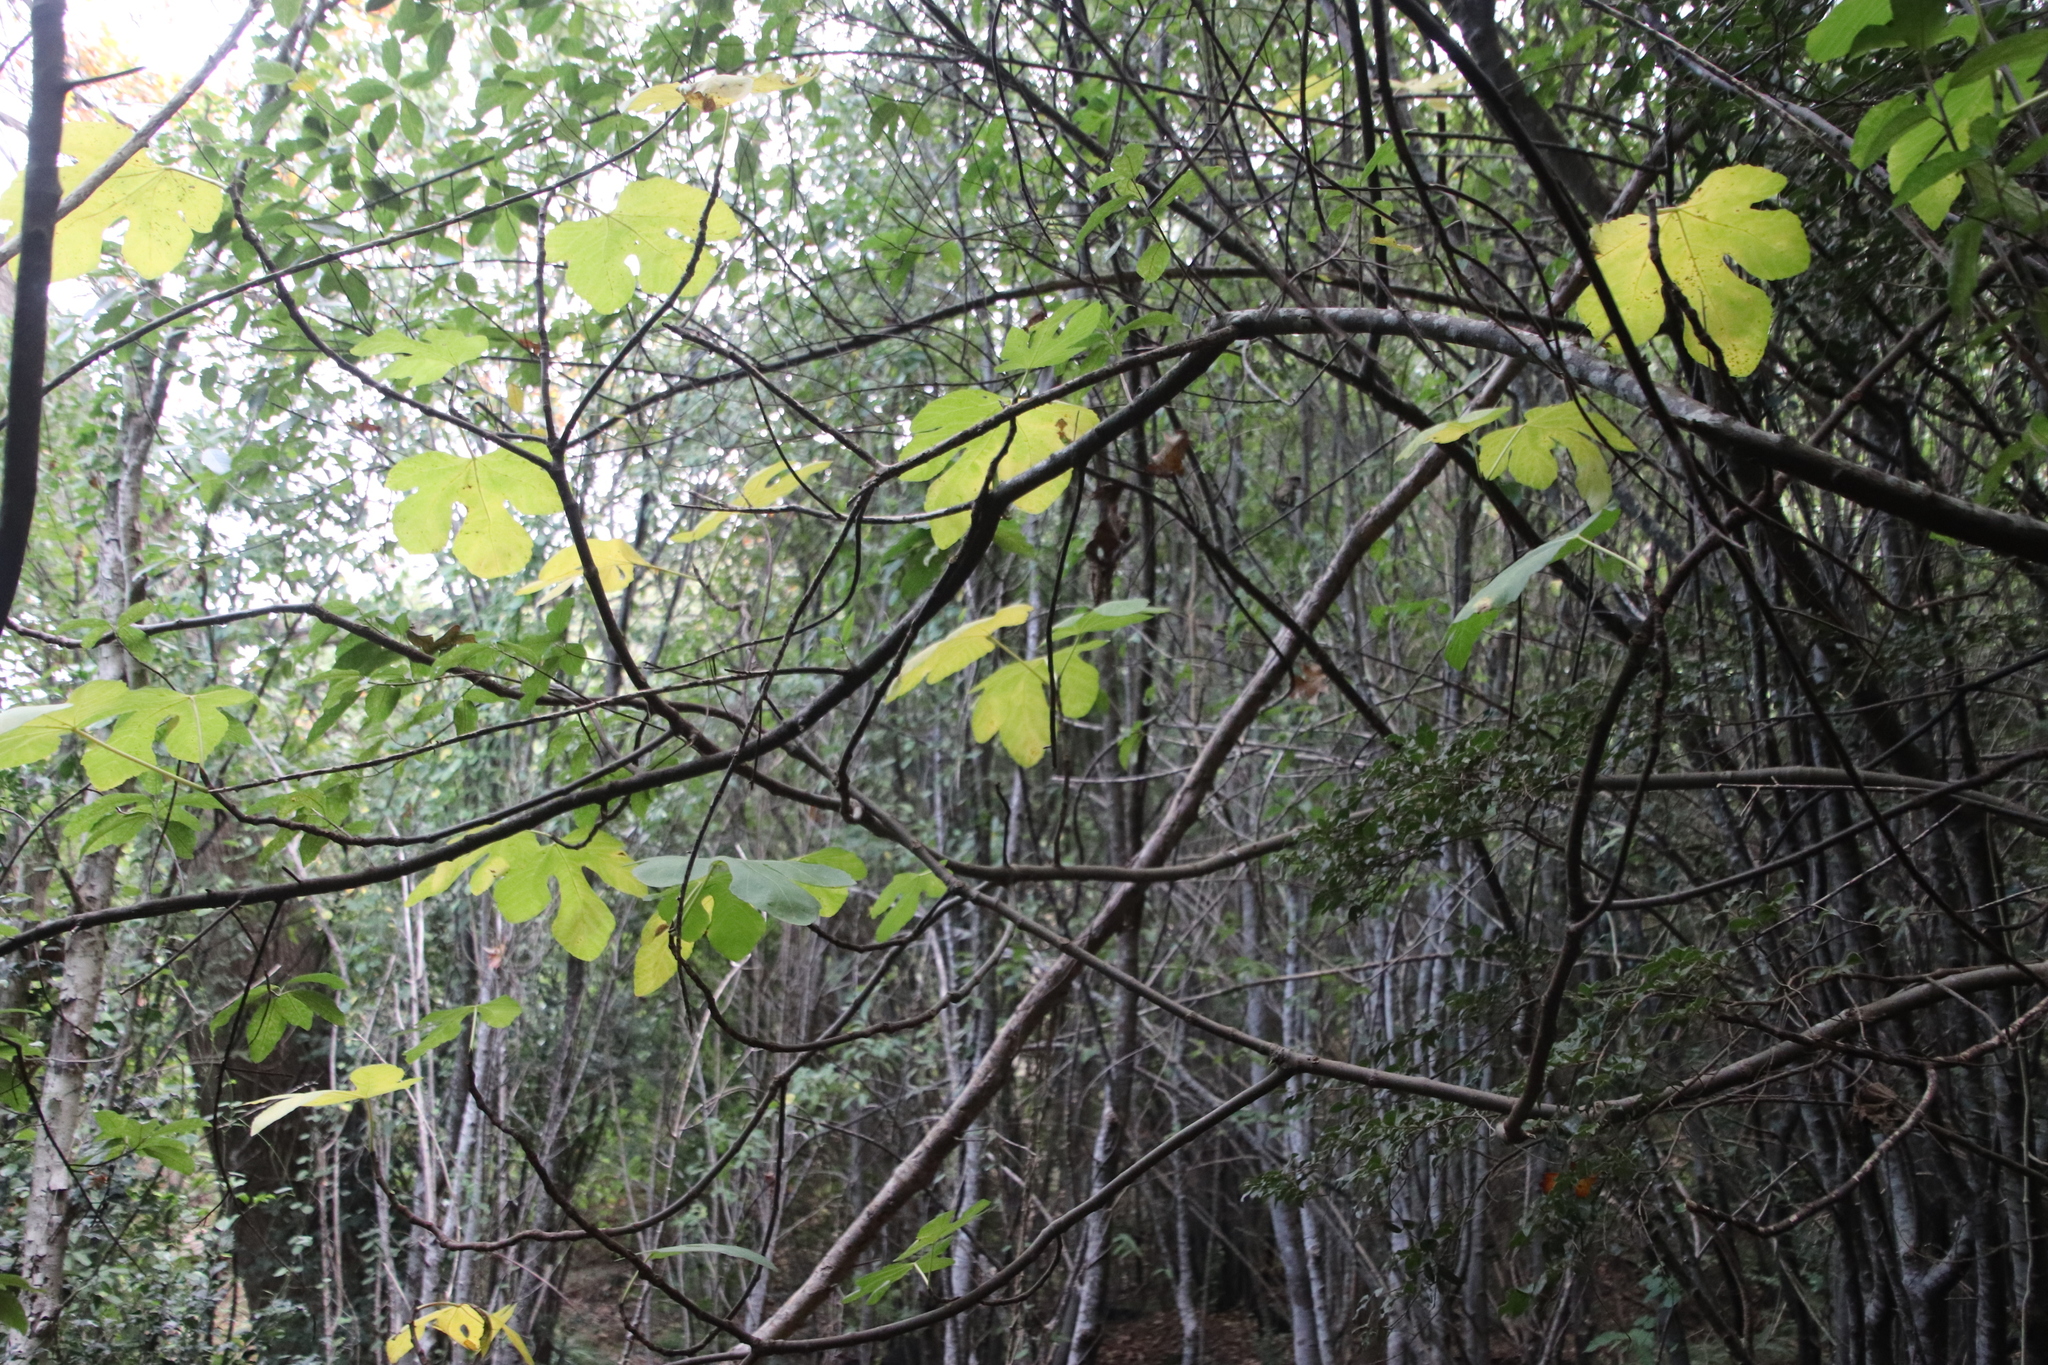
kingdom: Plantae
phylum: Tracheophyta
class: Magnoliopsida
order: Rosales
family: Moraceae
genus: Ficus
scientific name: Ficus carica
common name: Fig
